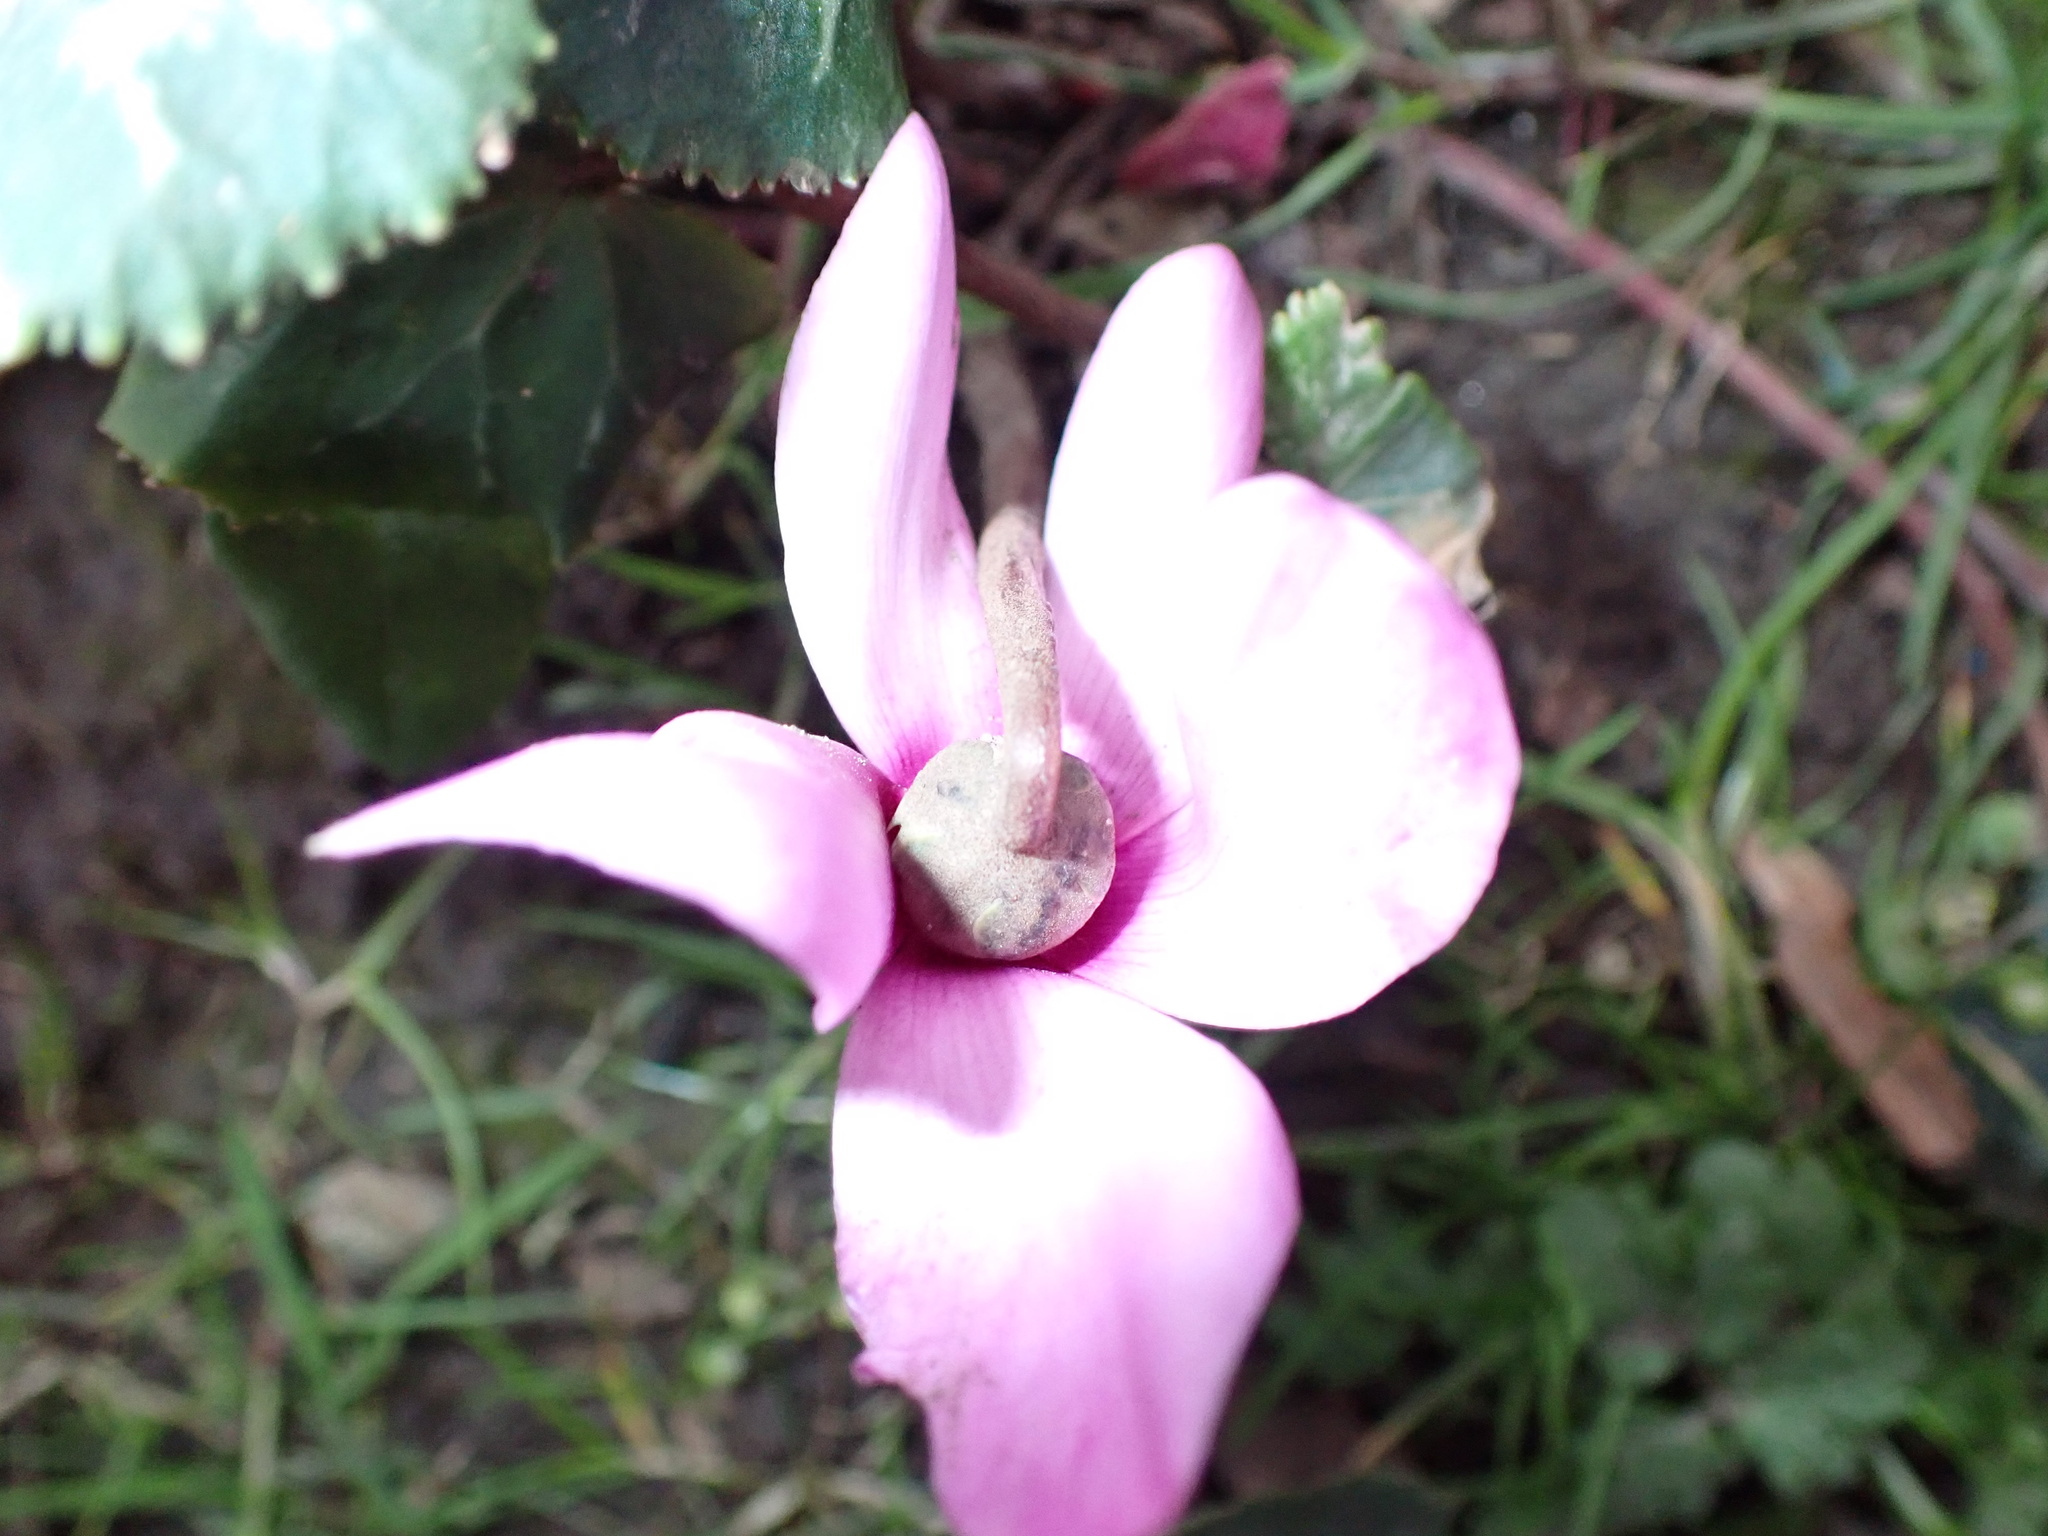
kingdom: Plantae
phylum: Tracheophyta
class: Magnoliopsida
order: Ericales
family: Primulaceae
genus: Cyclamen
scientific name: Cyclamen persicum
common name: Florist's cyclamen
